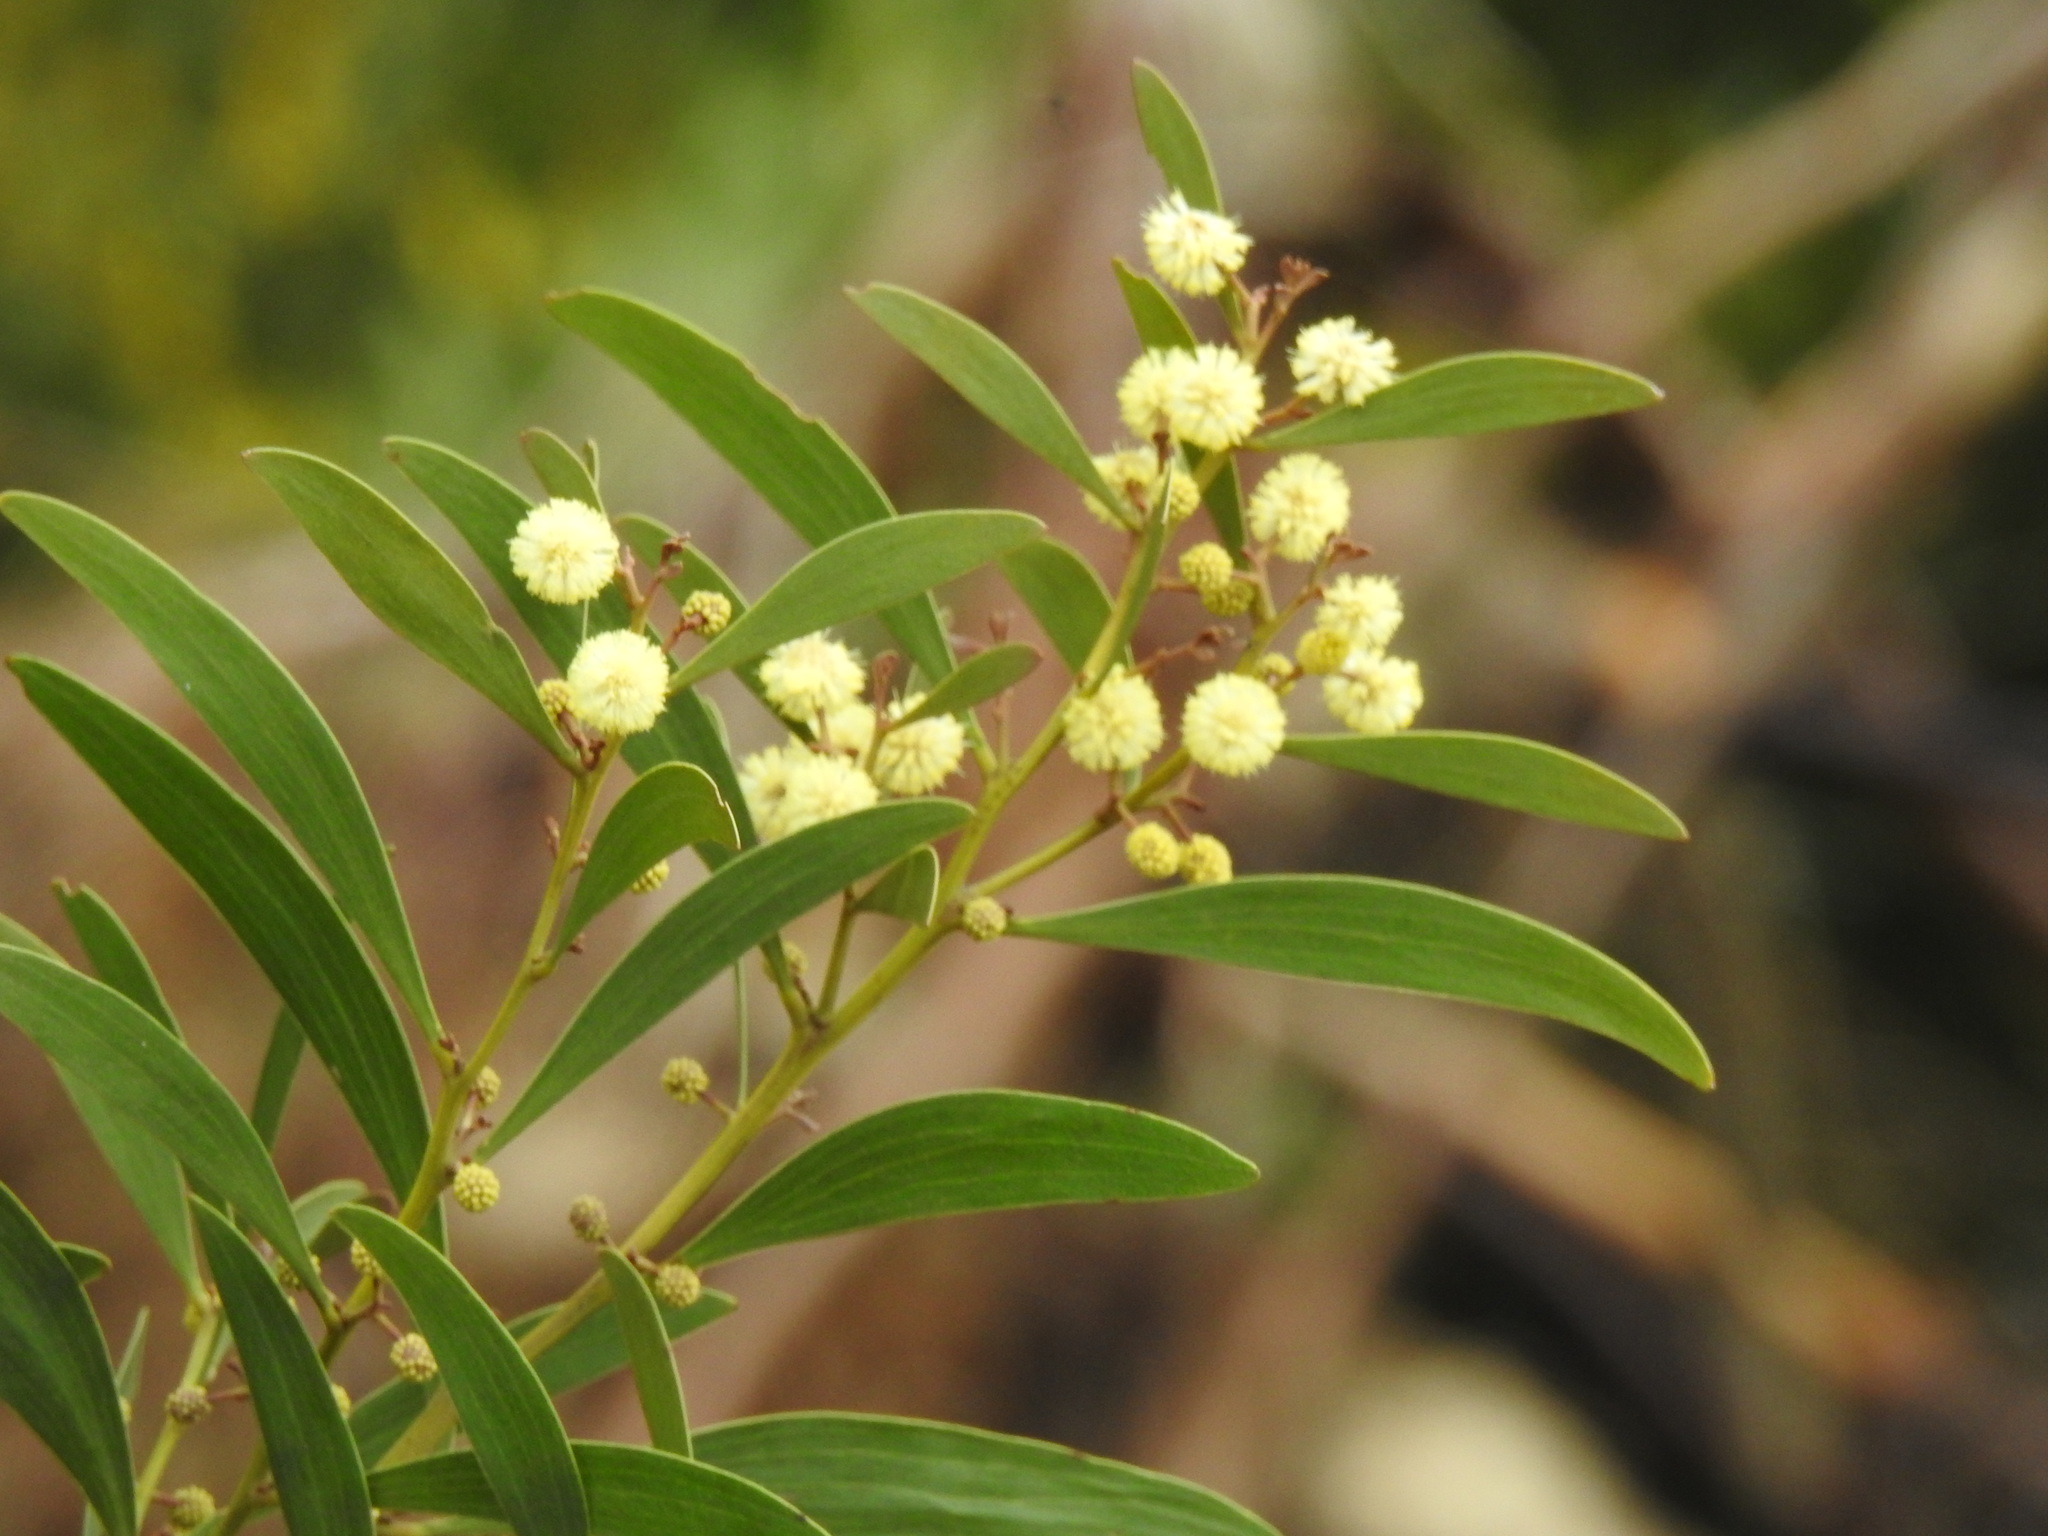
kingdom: Plantae
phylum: Tracheophyta
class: Magnoliopsida
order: Fabales
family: Fabaceae
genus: Acacia
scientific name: Acacia melanoxylon
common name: Blackwood
